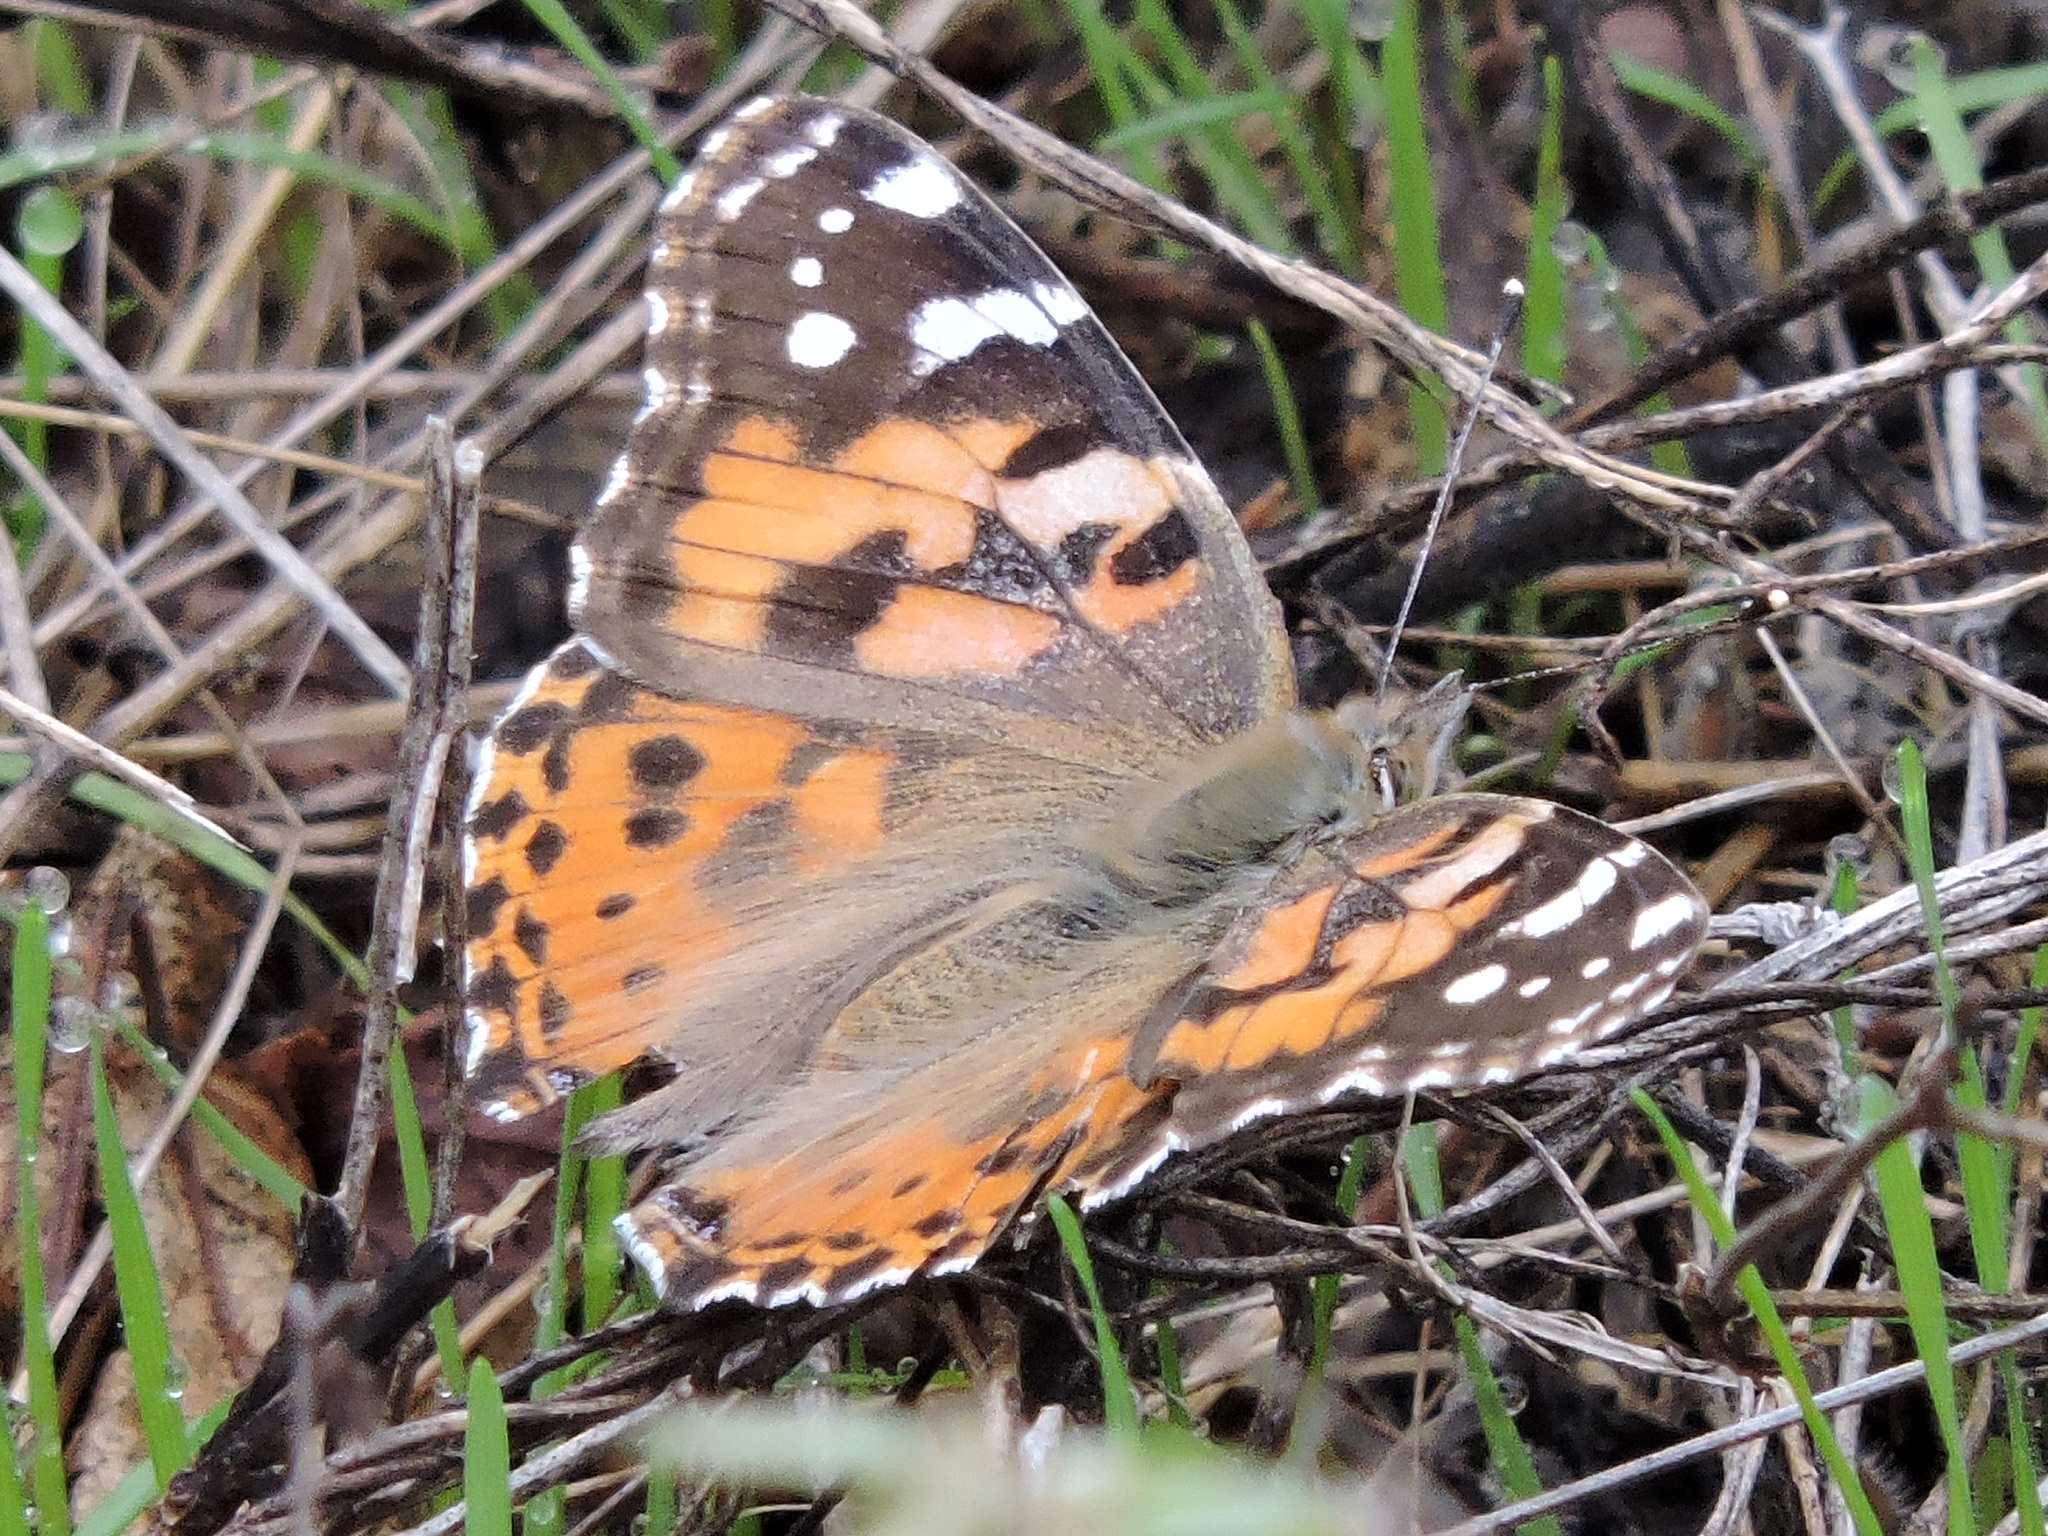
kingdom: Animalia
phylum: Arthropoda
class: Insecta
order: Lepidoptera
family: Nymphalidae
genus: Vanessa
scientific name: Vanessa cardui
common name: Painted lady
